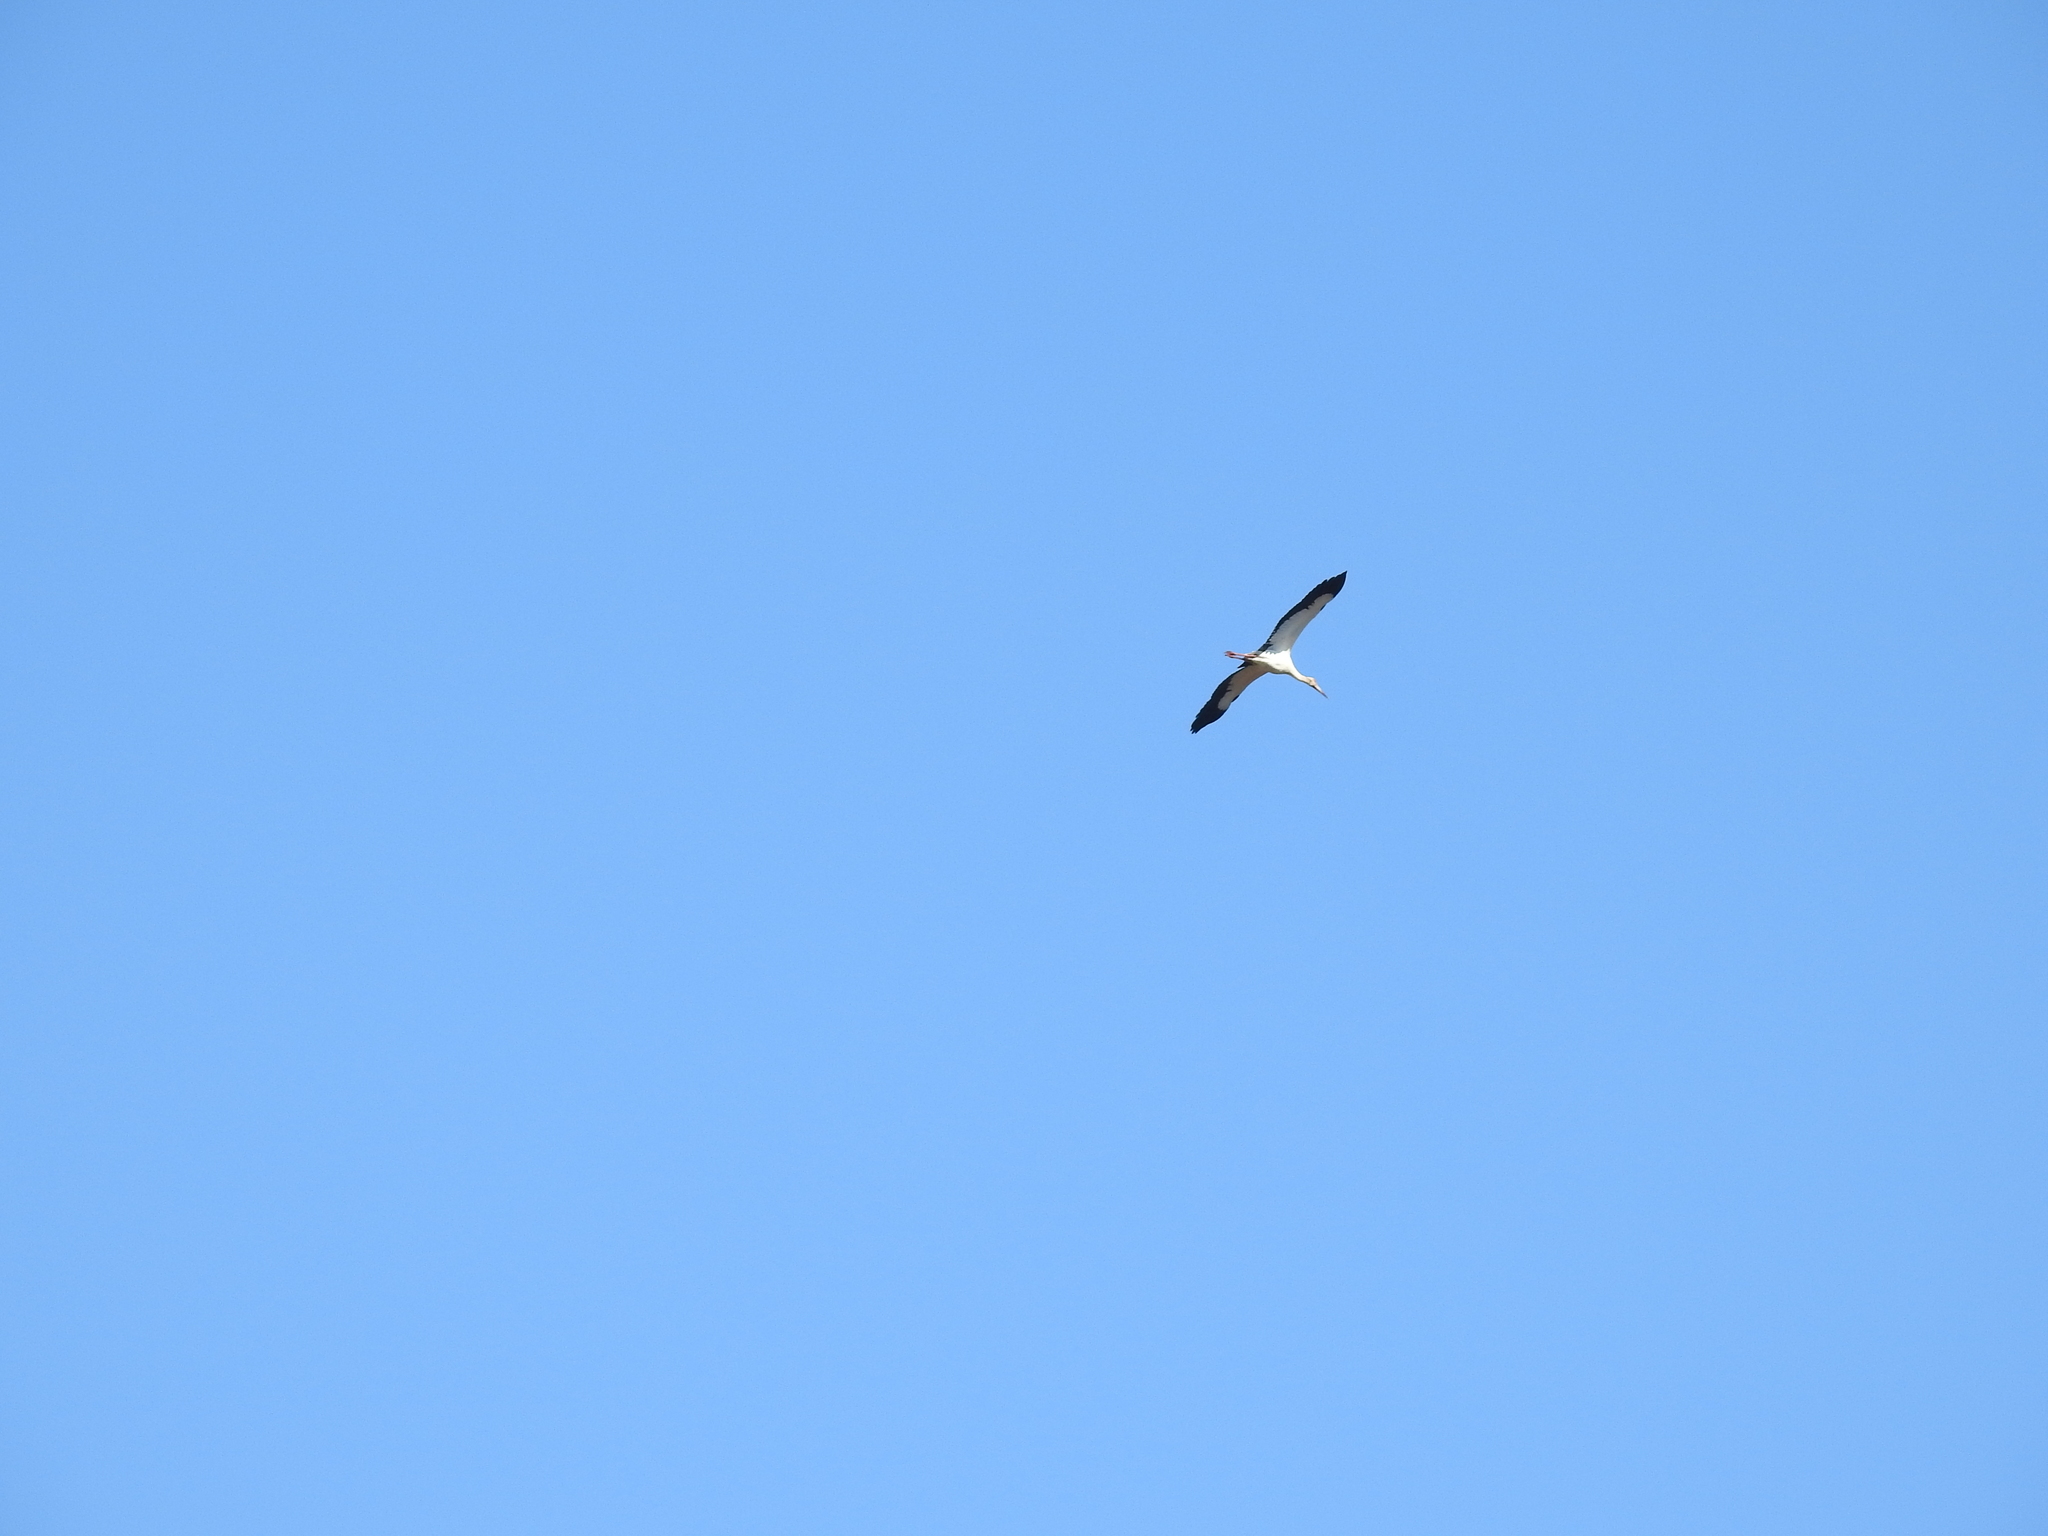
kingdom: Animalia
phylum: Chordata
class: Aves
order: Ciconiiformes
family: Ciconiidae
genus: Ciconia
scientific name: Ciconia maguari
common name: Maguari stork
